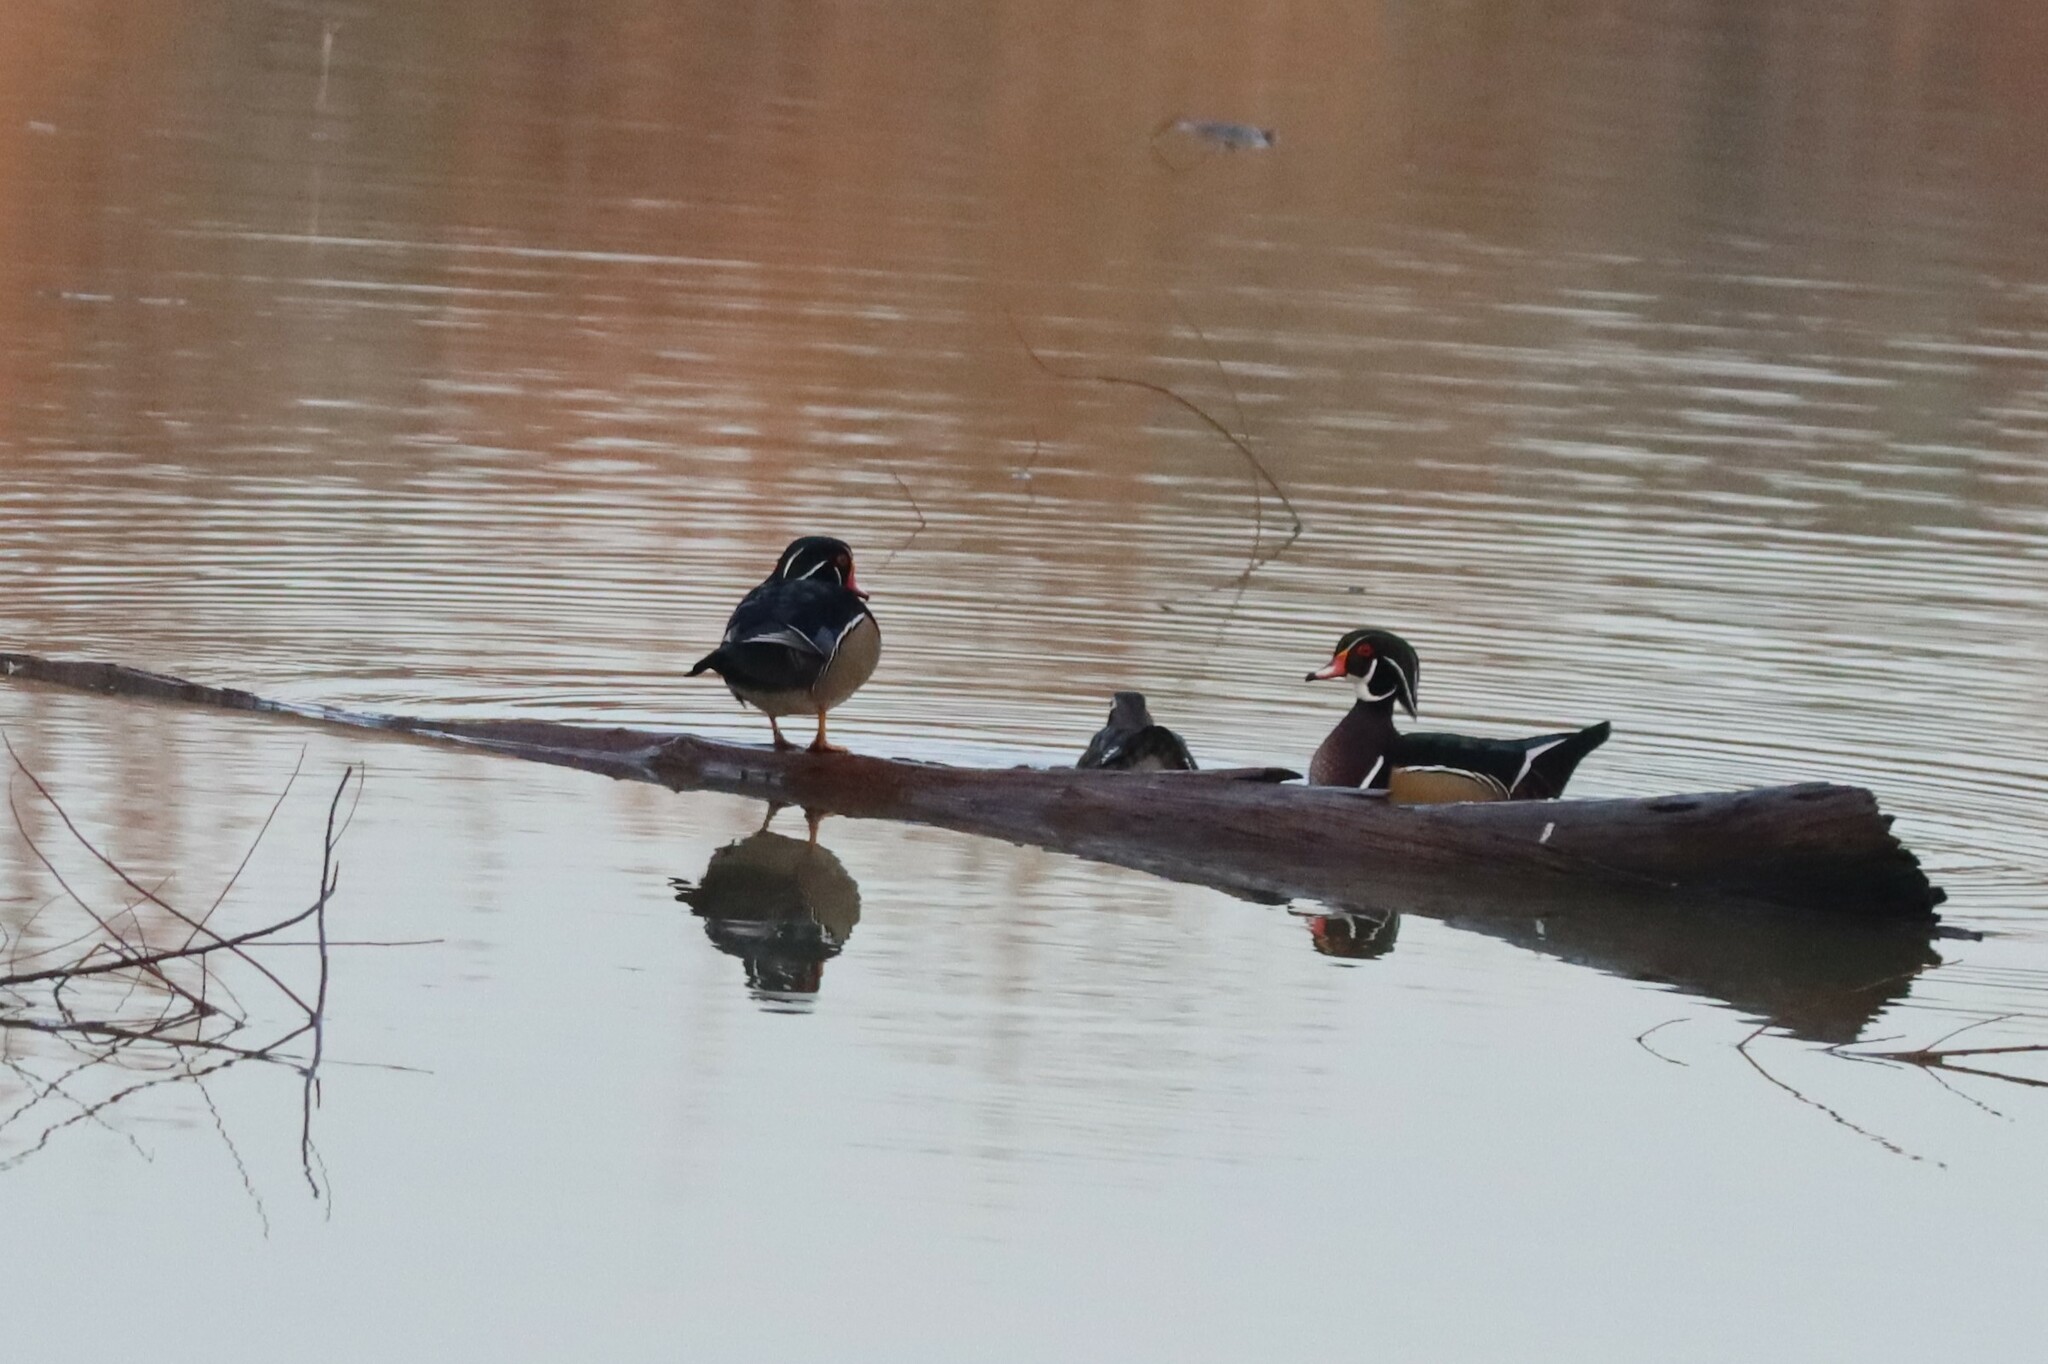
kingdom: Animalia
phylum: Chordata
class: Aves
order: Anseriformes
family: Anatidae
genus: Aix
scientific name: Aix sponsa
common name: Wood duck
